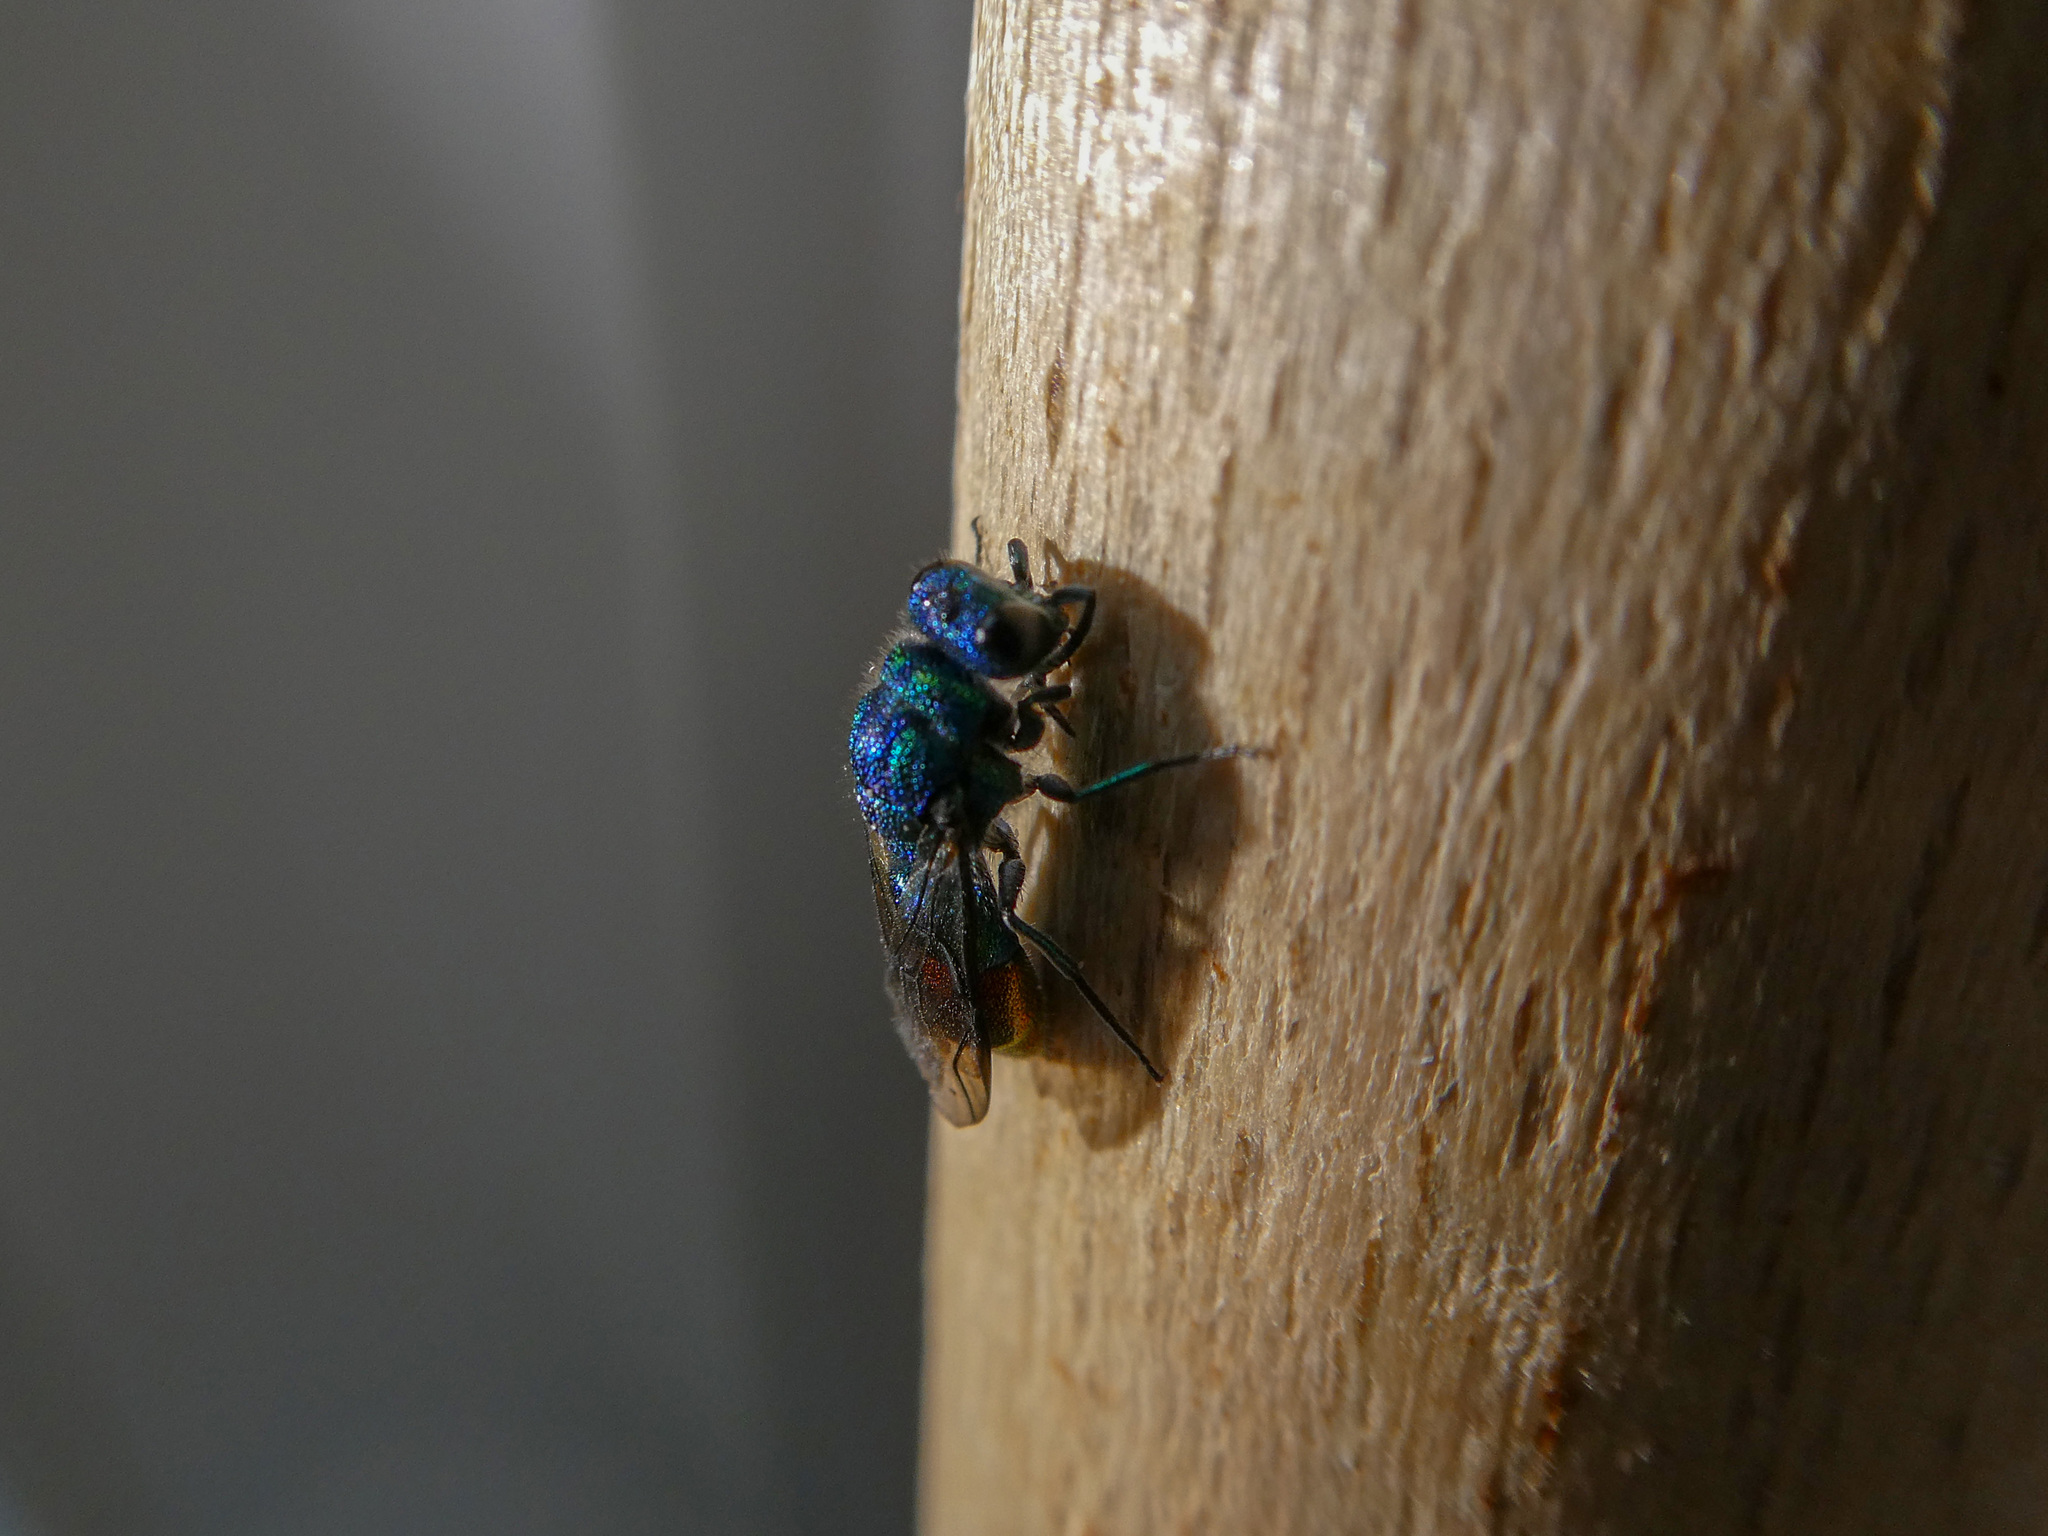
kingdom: Animalia
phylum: Arthropoda
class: Insecta
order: Hymenoptera
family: Chrysididae
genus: Chrysis
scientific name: Chrysis fulgida
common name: Shimmering ruby-tail
